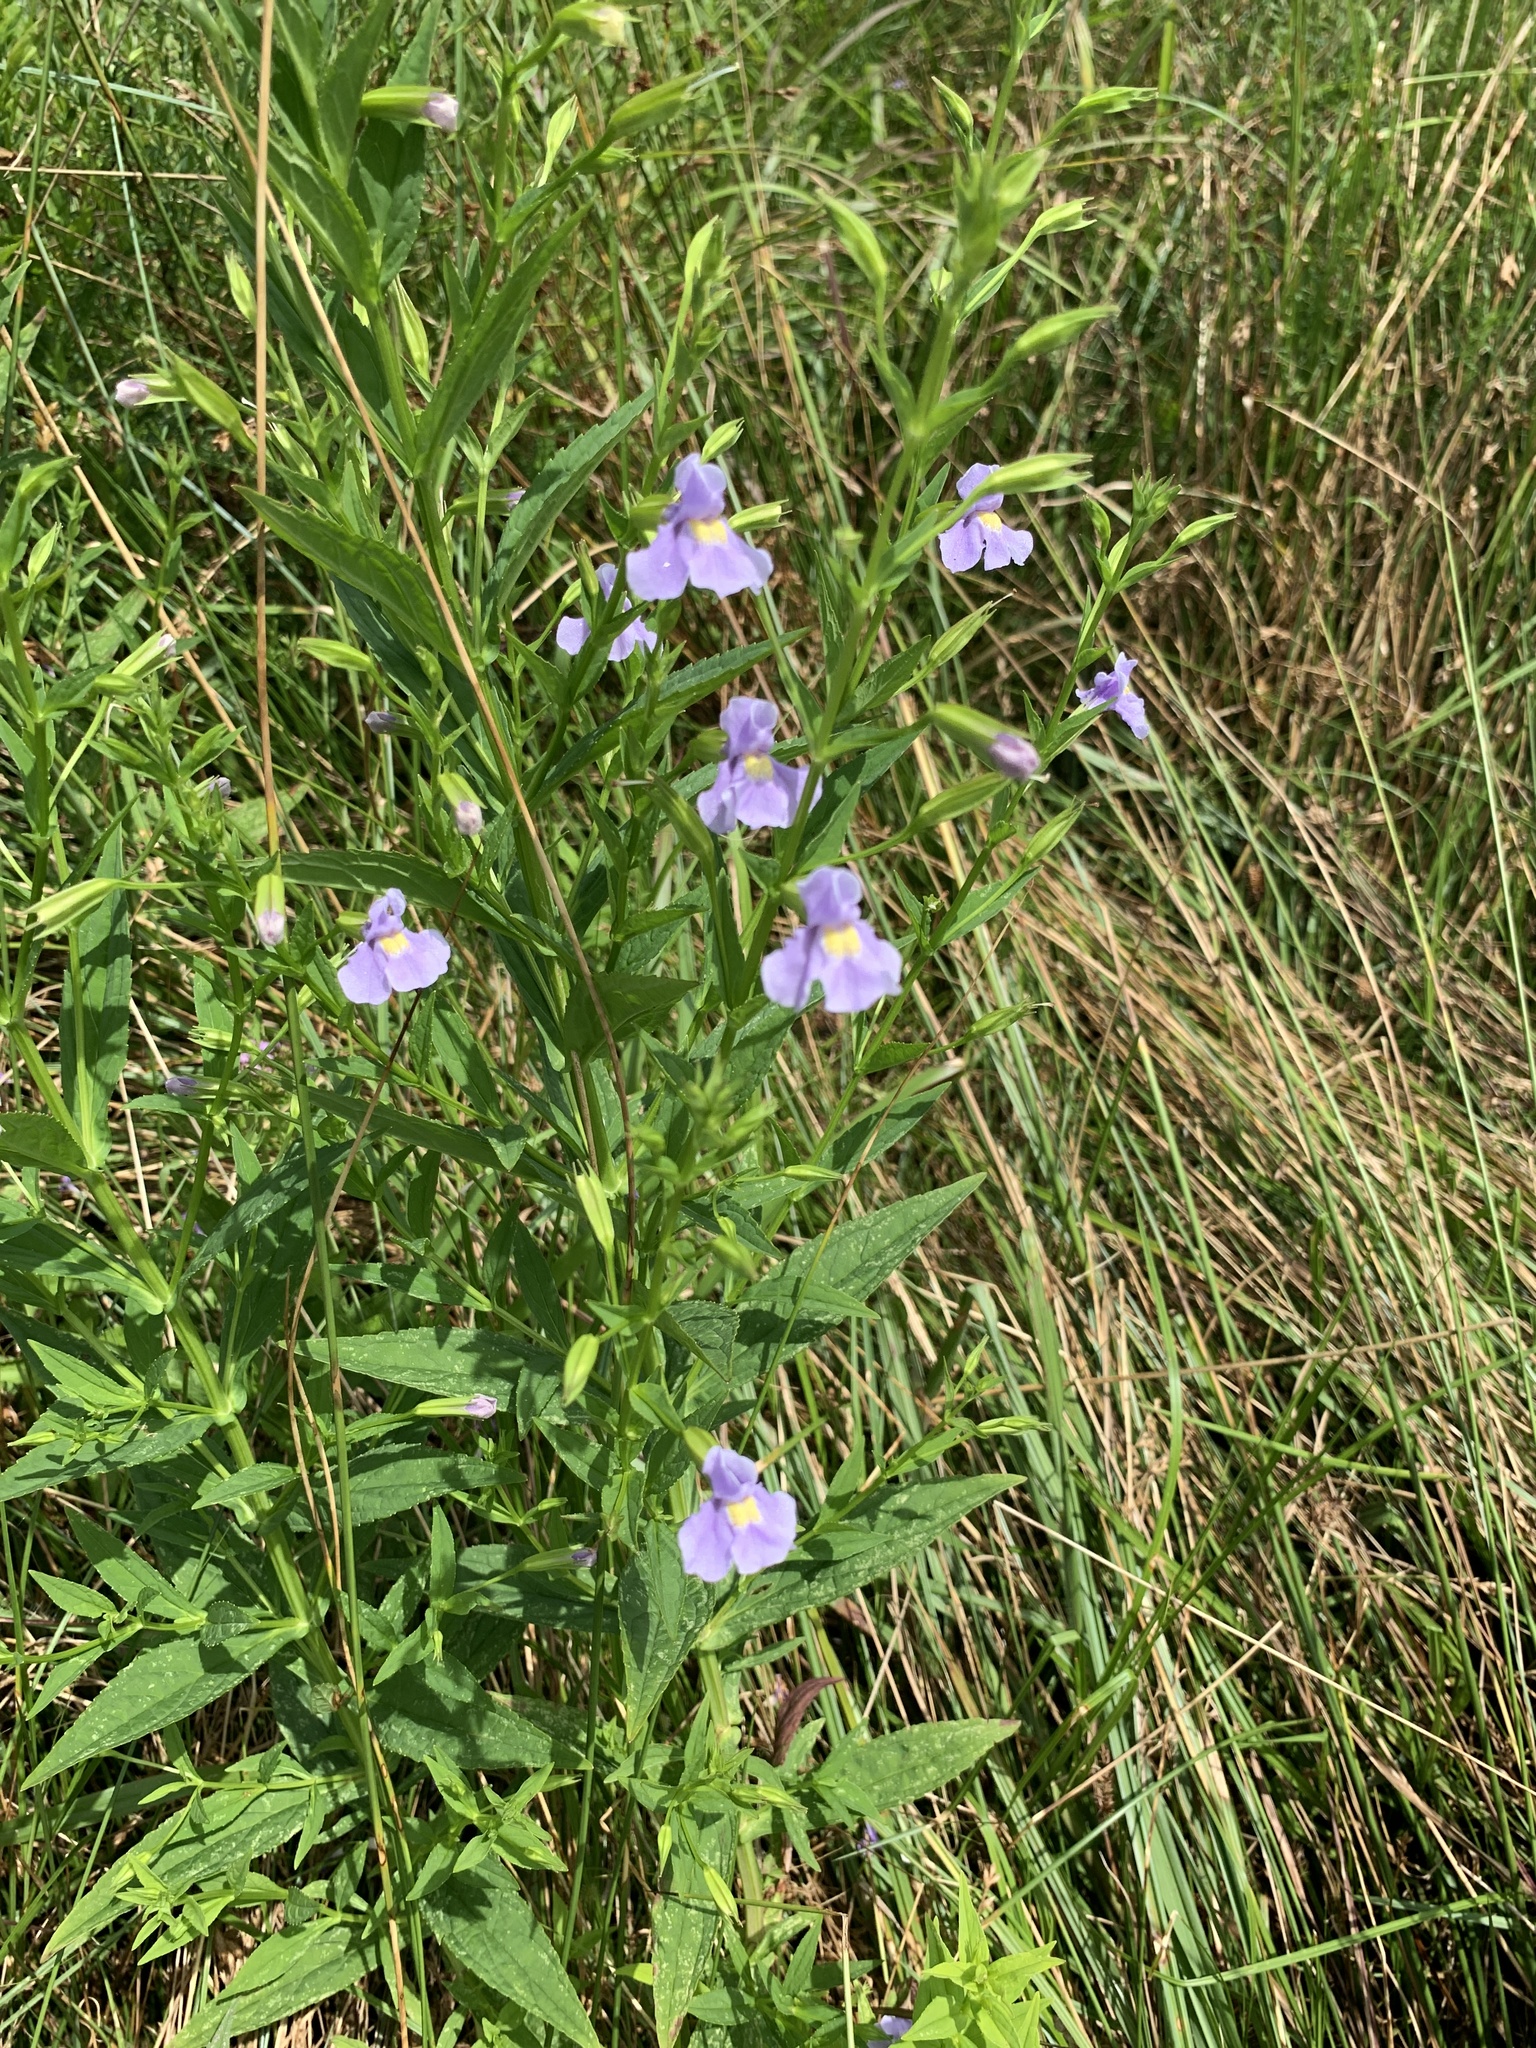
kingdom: Plantae
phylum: Tracheophyta
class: Magnoliopsida
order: Lamiales
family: Phrymaceae
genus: Mimulus
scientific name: Mimulus ringens
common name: Allegheny monkeyflower
